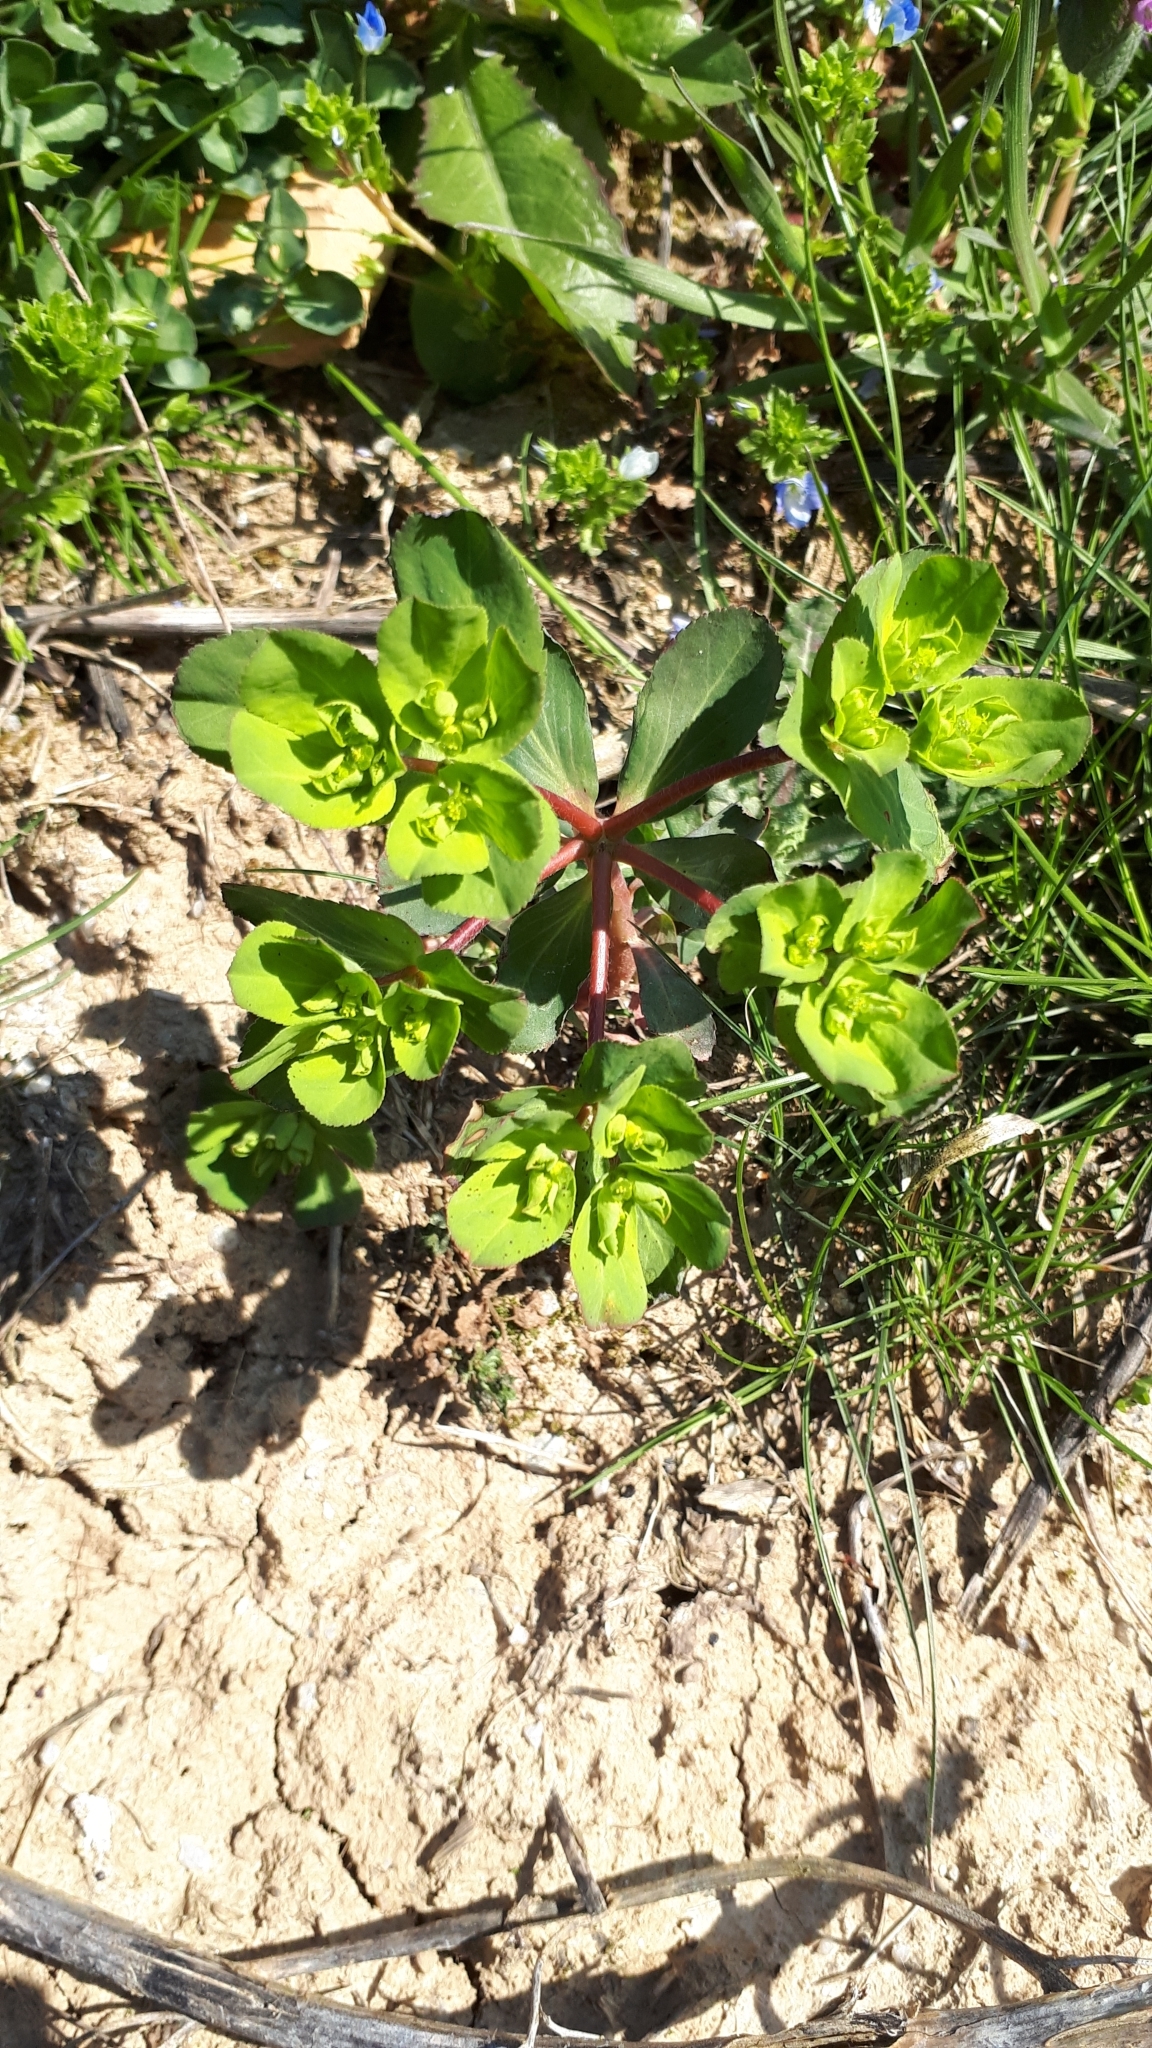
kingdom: Plantae
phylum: Tracheophyta
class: Magnoliopsida
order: Malpighiales
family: Euphorbiaceae
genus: Euphorbia
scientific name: Euphorbia helioscopia
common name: Sun spurge
